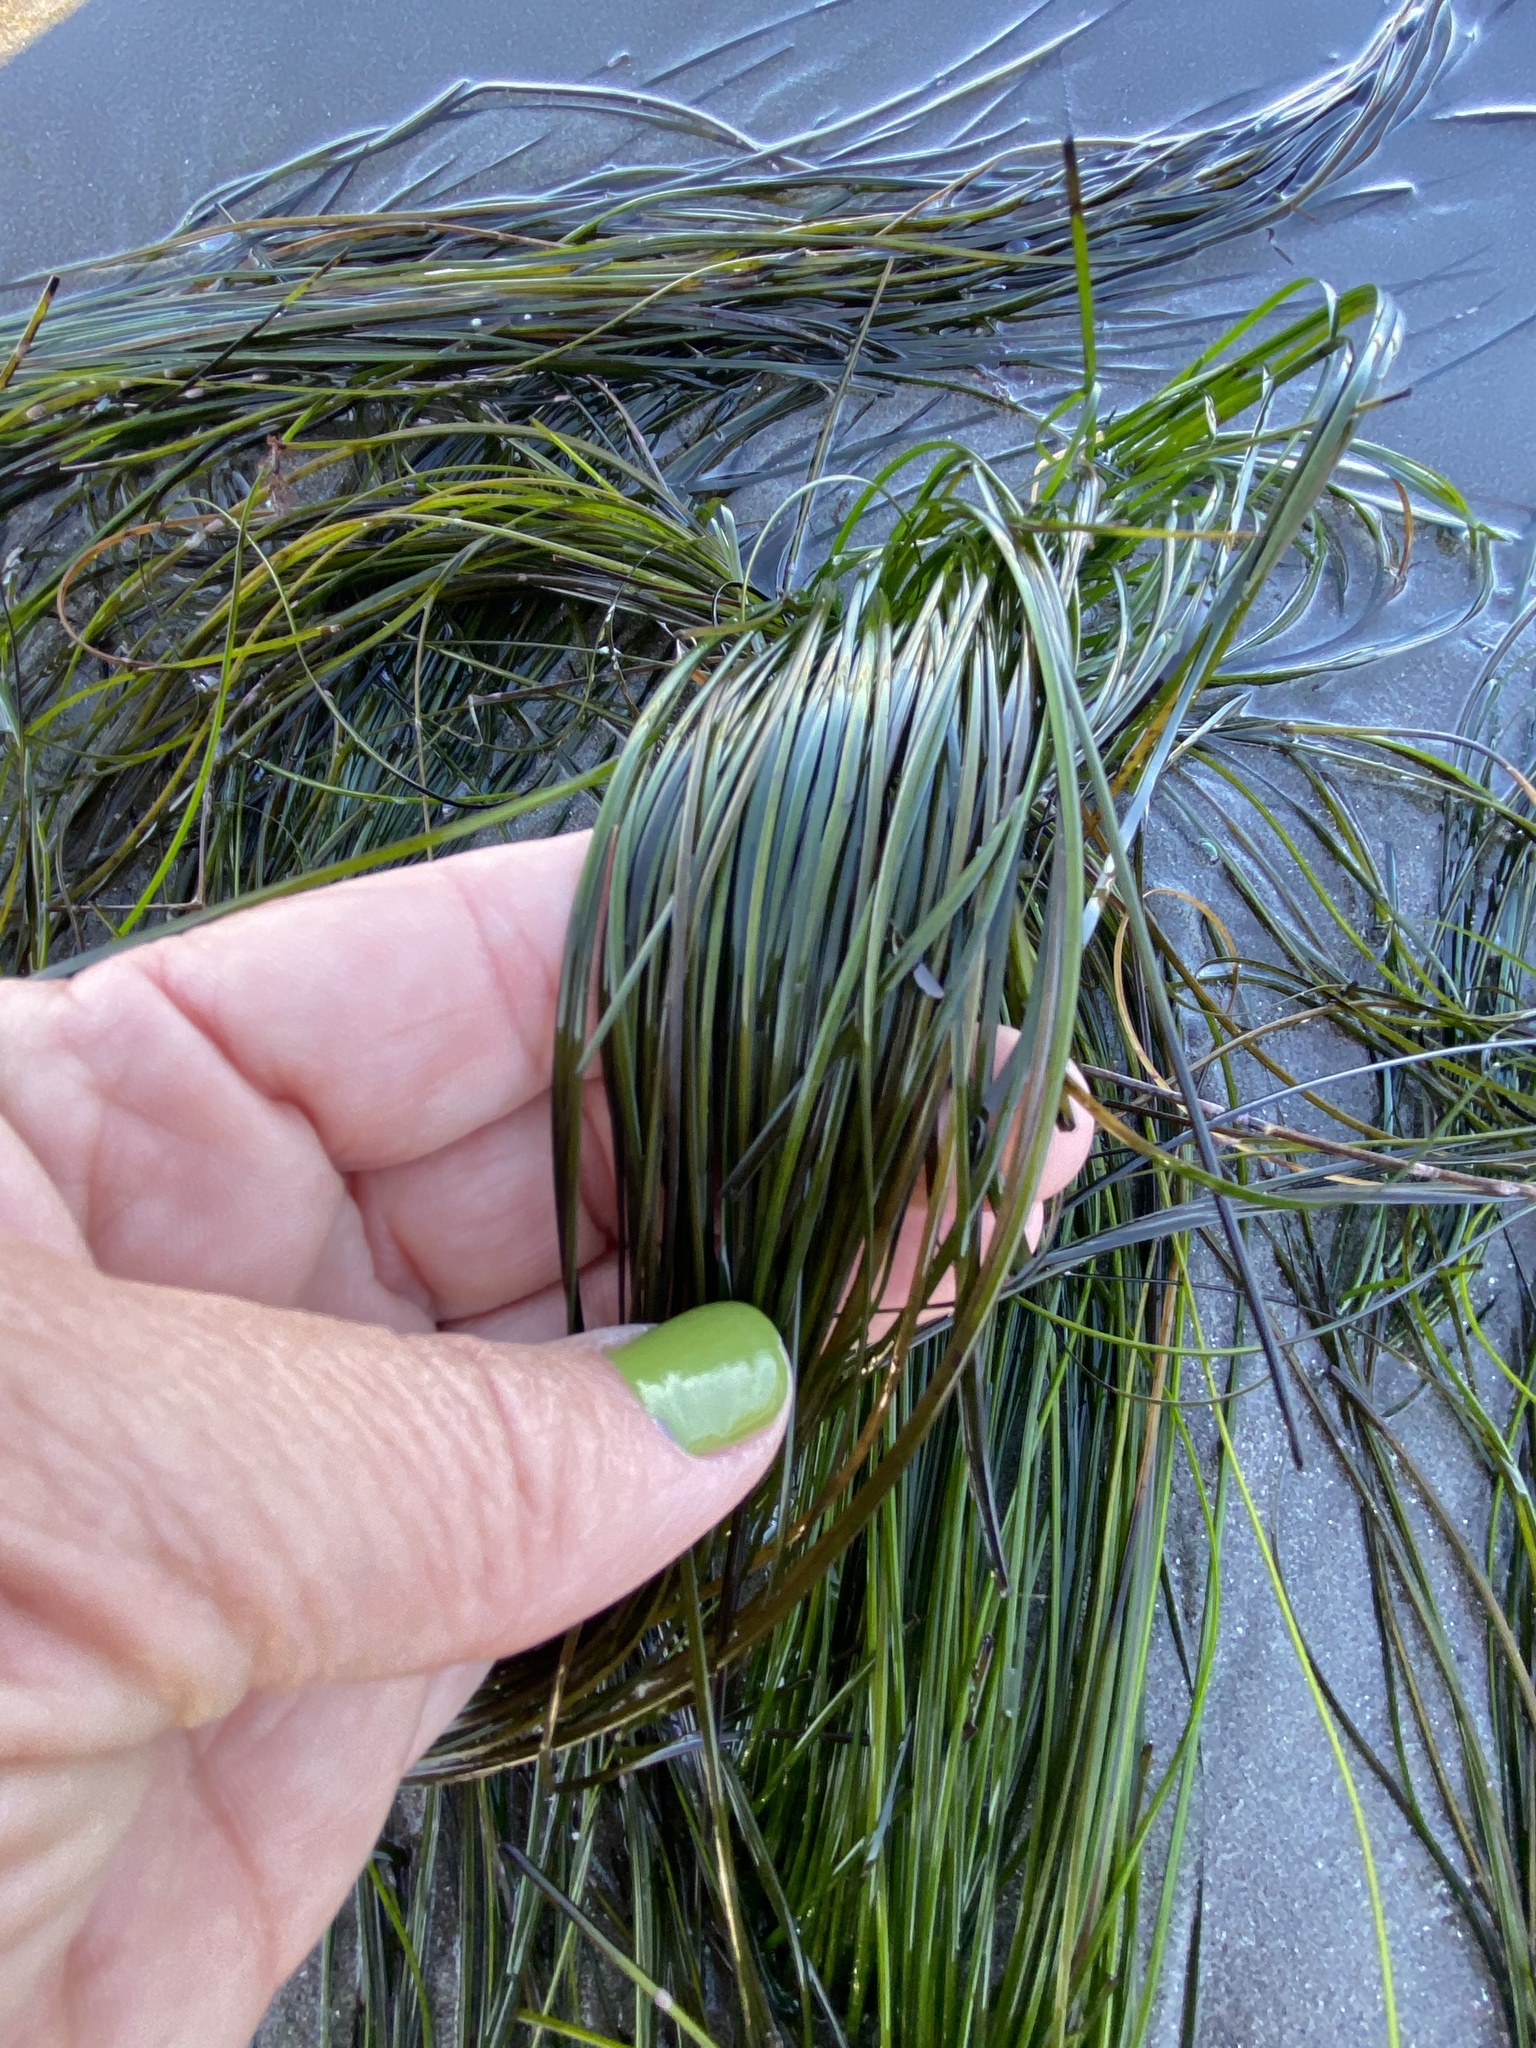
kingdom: Plantae
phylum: Tracheophyta
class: Liliopsida
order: Alismatales
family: Zosteraceae
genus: Phyllospadix
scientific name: Phyllospadix torreyi
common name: Surfgrass
